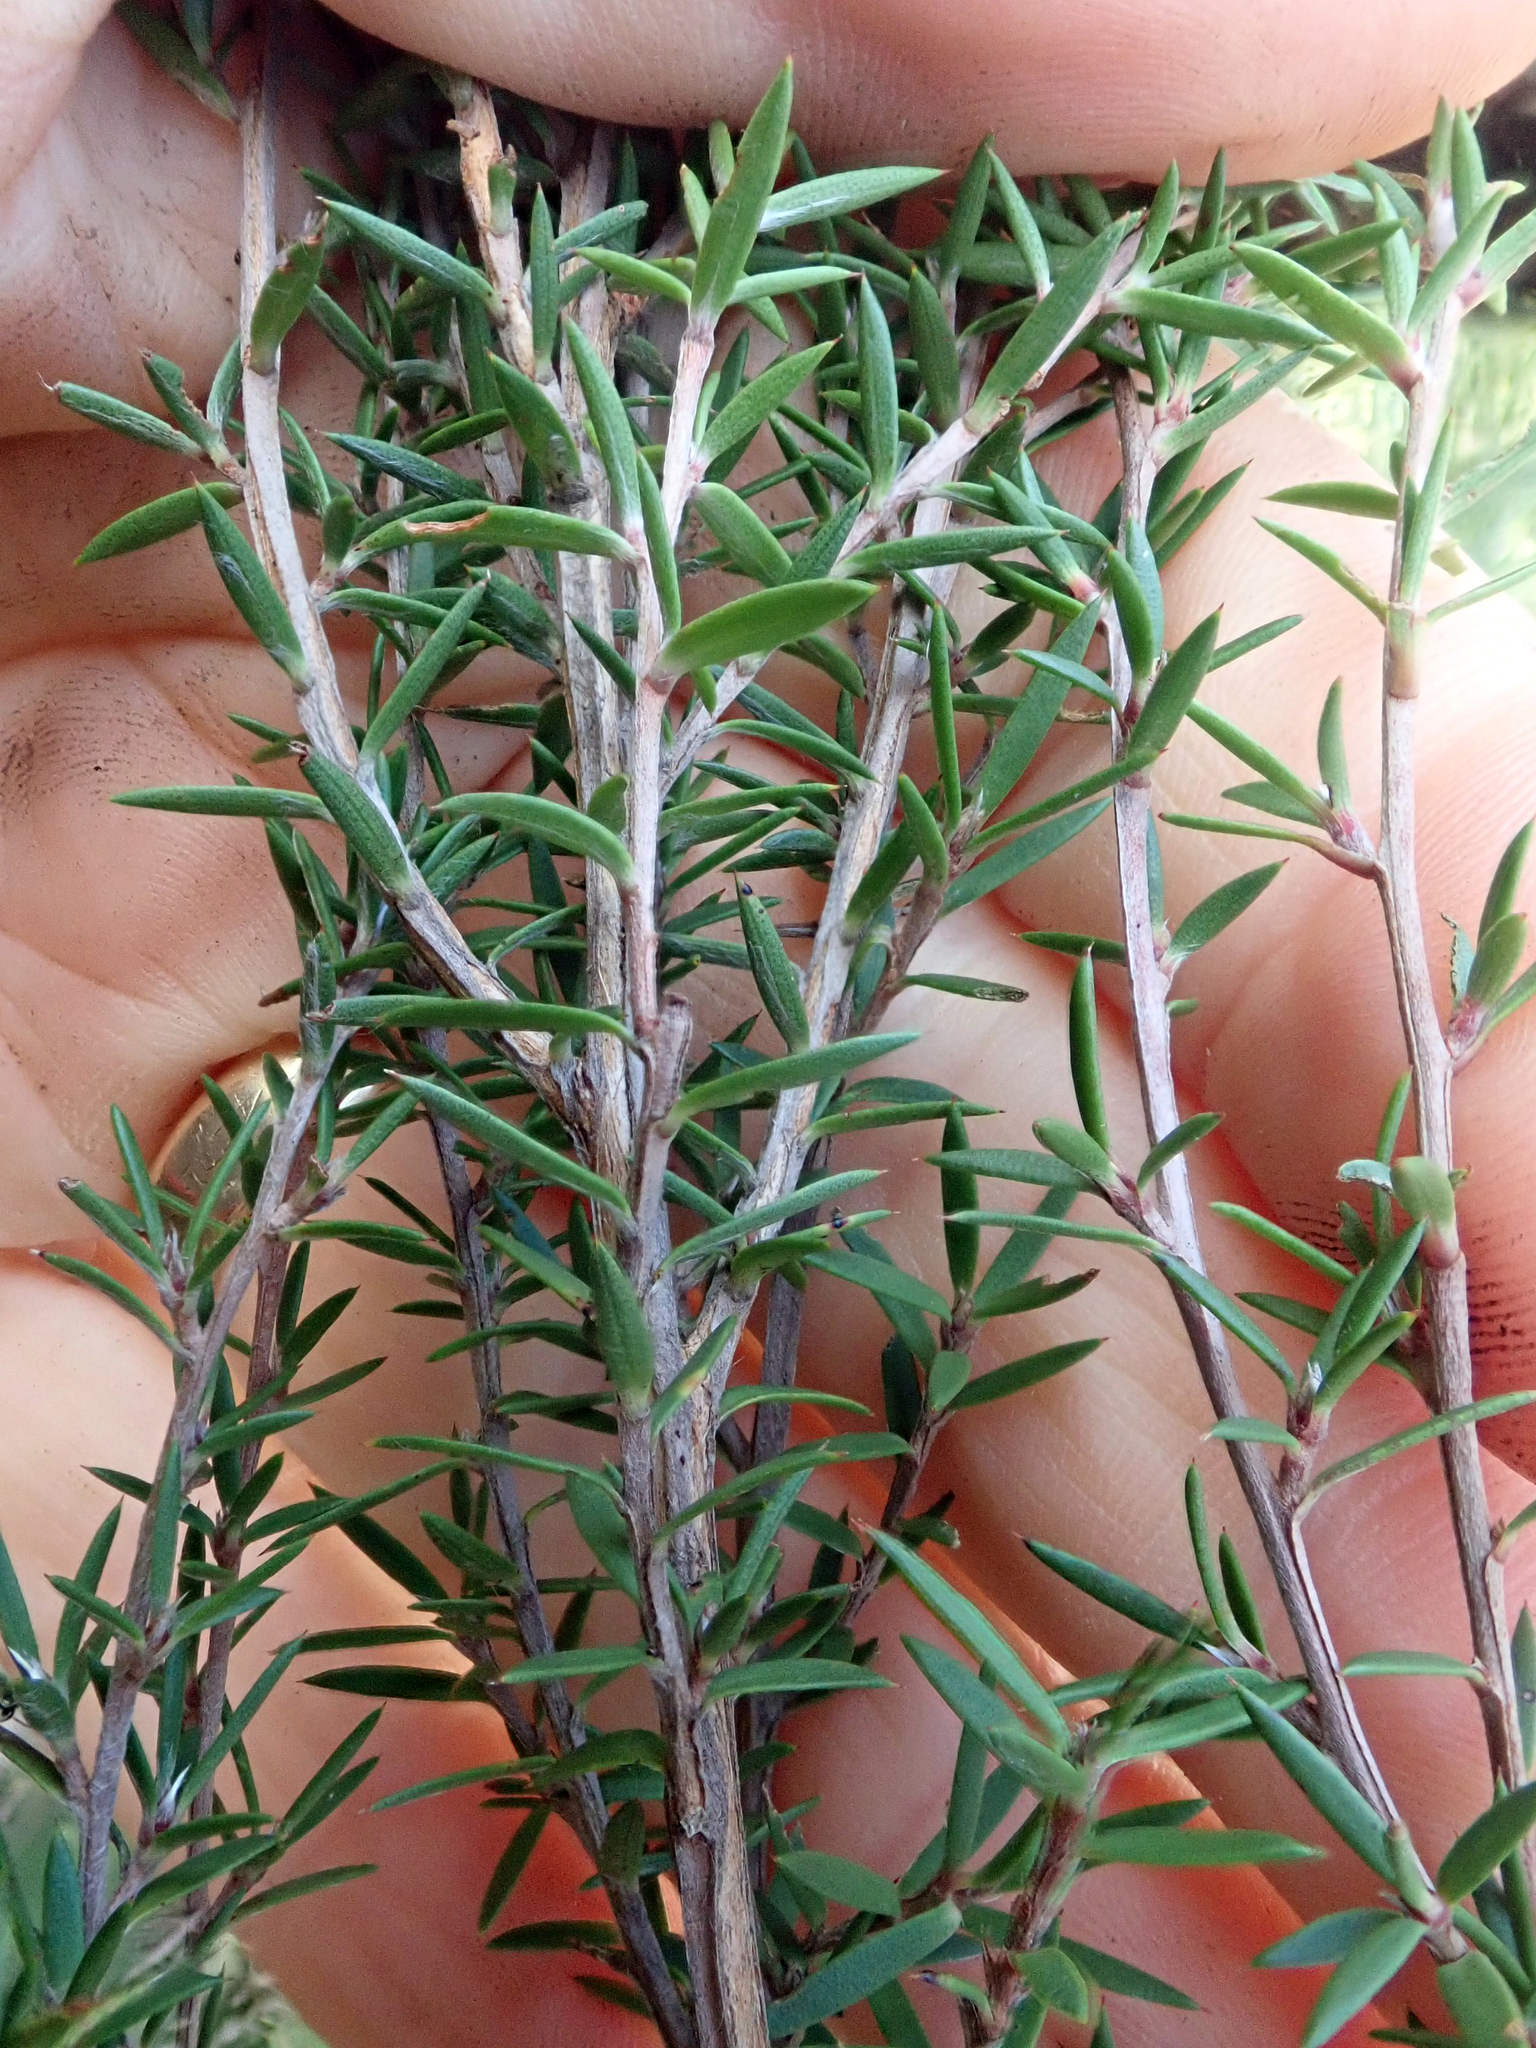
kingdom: Plantae
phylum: Tracheophyta
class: Magnoliopsida
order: Myrtales
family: Myrtaceae
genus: Leptospermum
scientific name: Leptospermum repo
